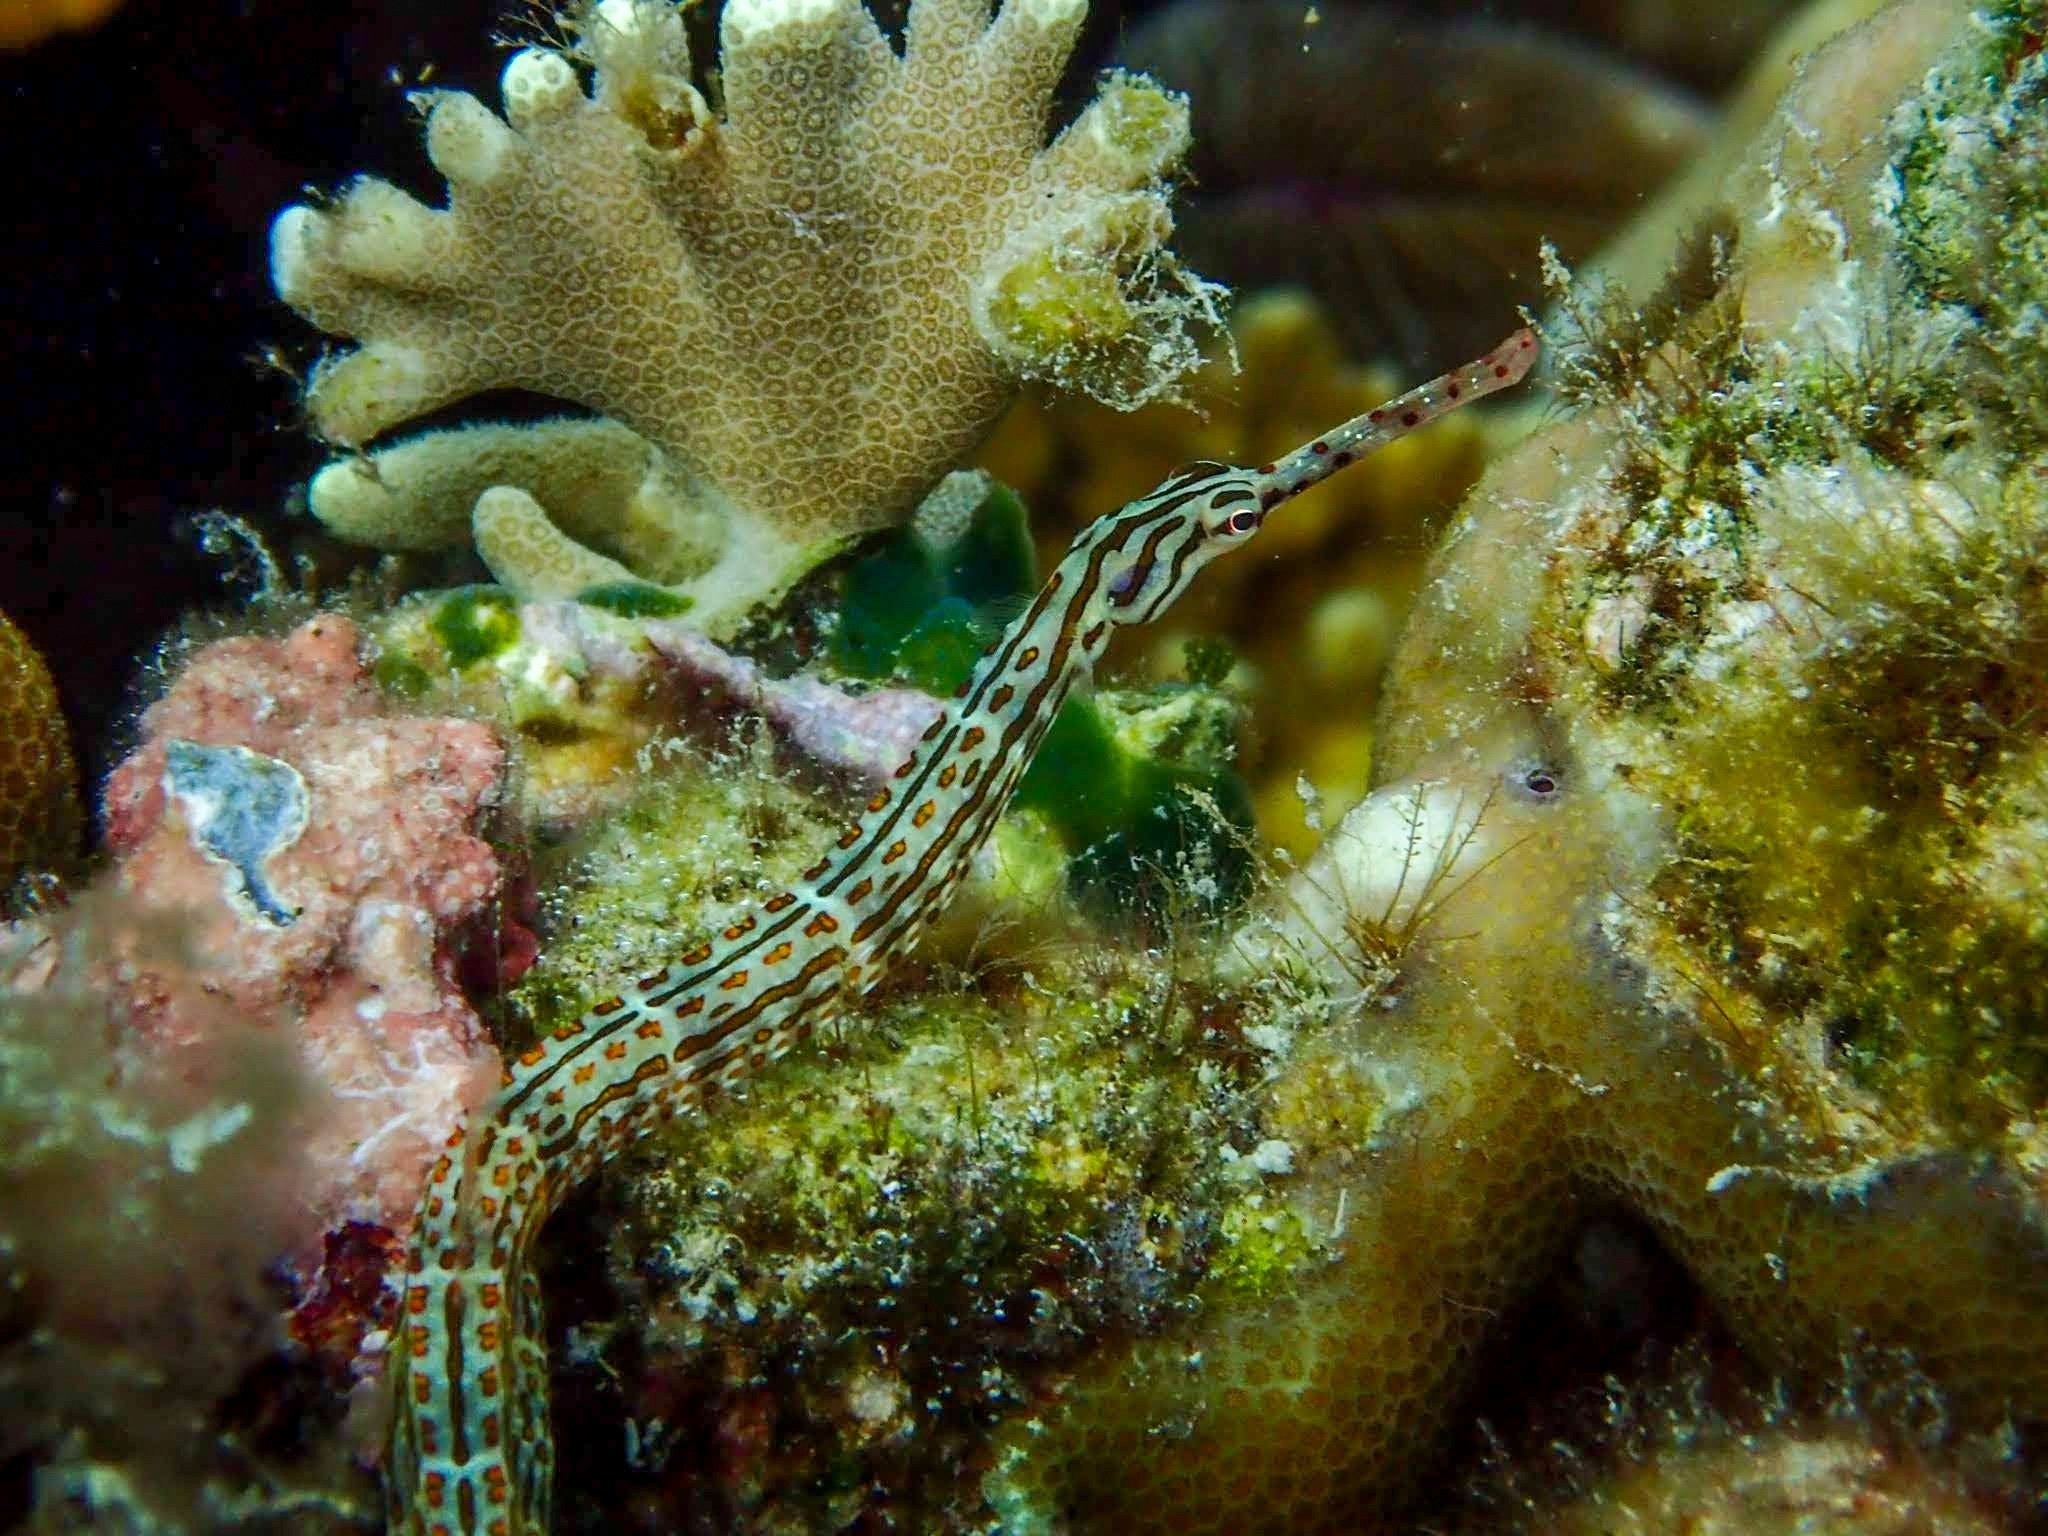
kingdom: Animalia
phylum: Chordata
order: Syngnathiformes
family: Syngnathidae
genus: Corythoichthys
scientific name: Corythoichthys schultzi
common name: Guilded pipefish
